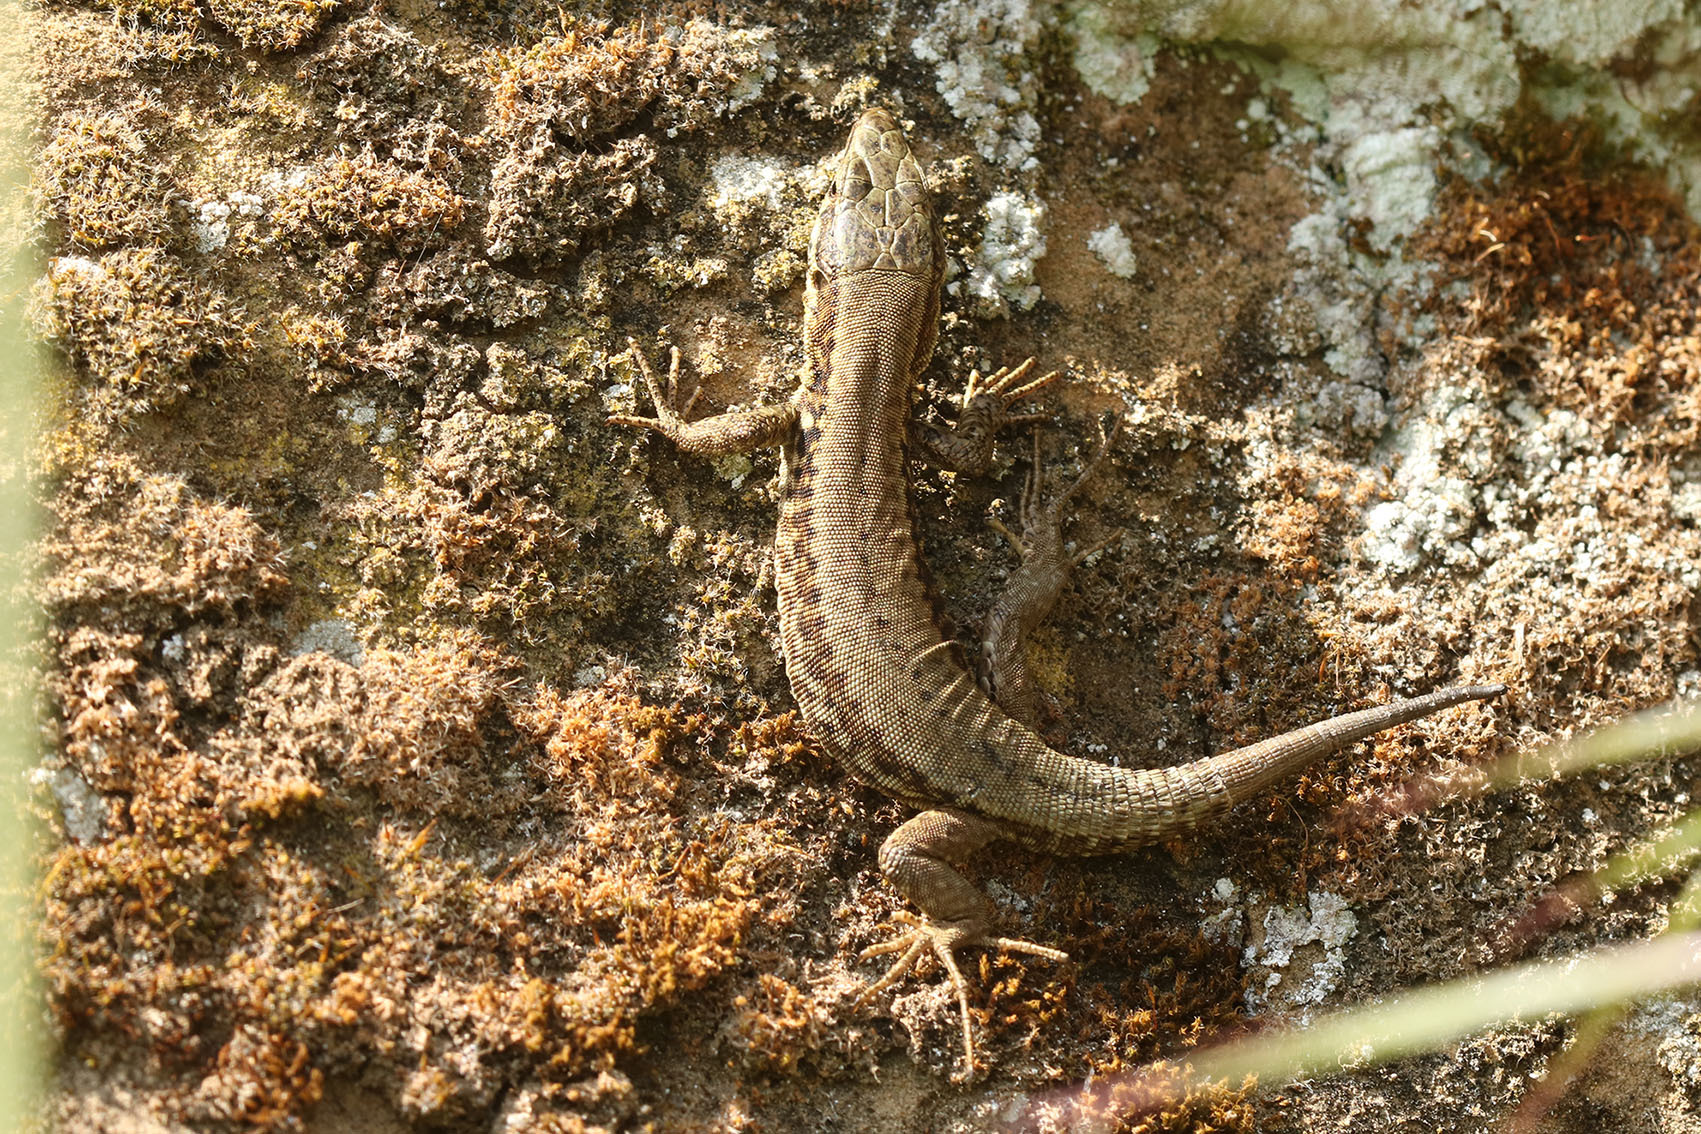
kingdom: Animalia
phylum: Chordata
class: Squamata
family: Lacertidae
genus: Podarcis
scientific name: Podarcis muralis
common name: Common wall lizard
